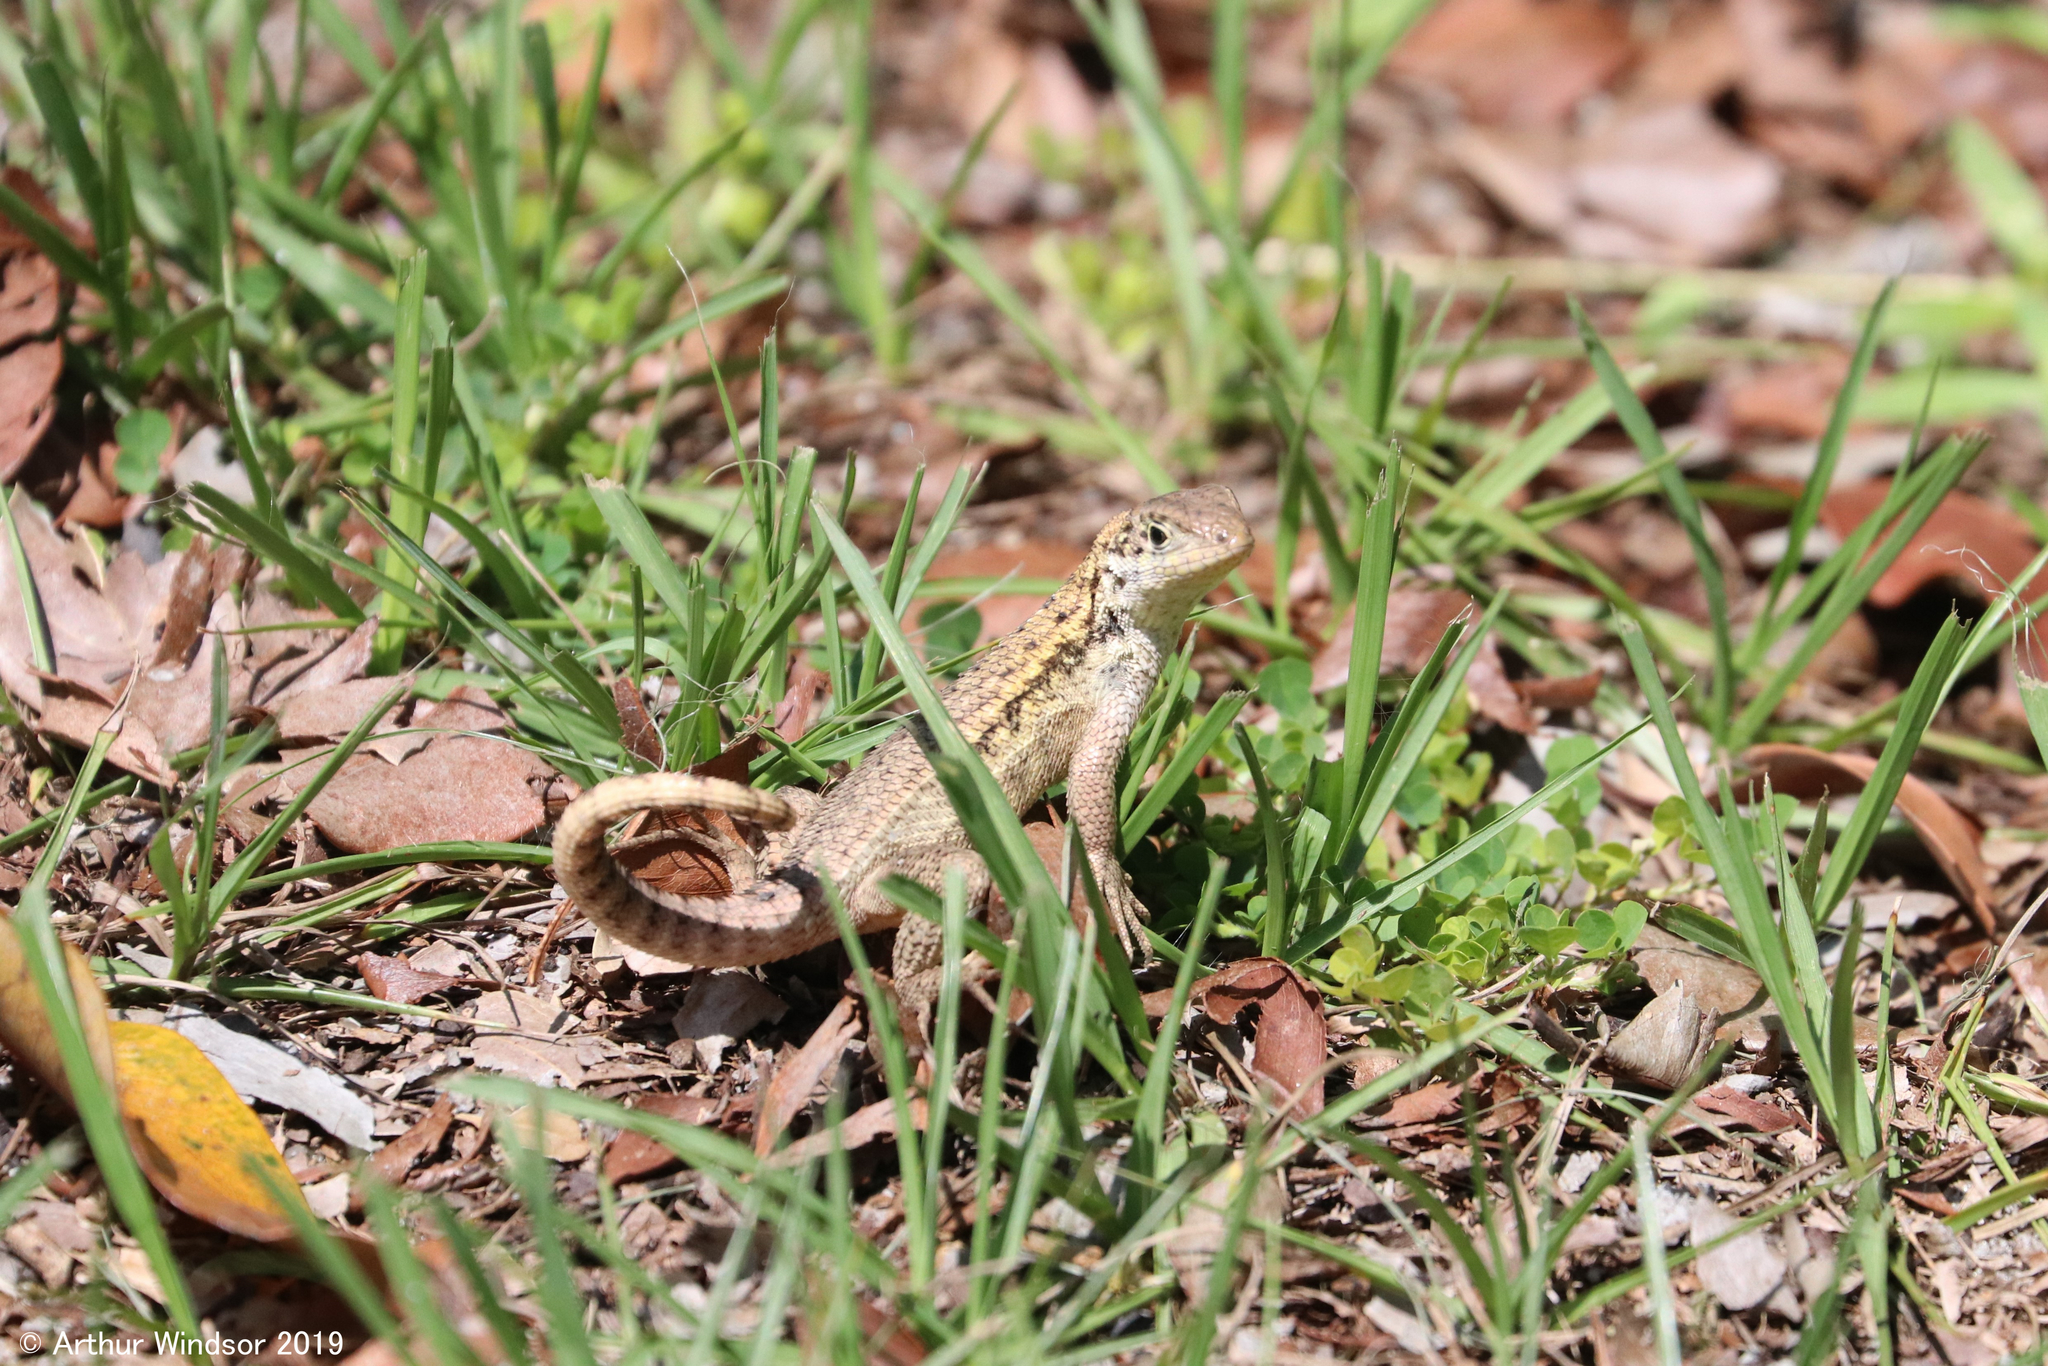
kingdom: Animalia
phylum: Chordata
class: Squamata
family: Leiocephalidae
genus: Leiocephalus
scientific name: Leiocephalus carinatus
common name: Northern curly-tailed lizard
